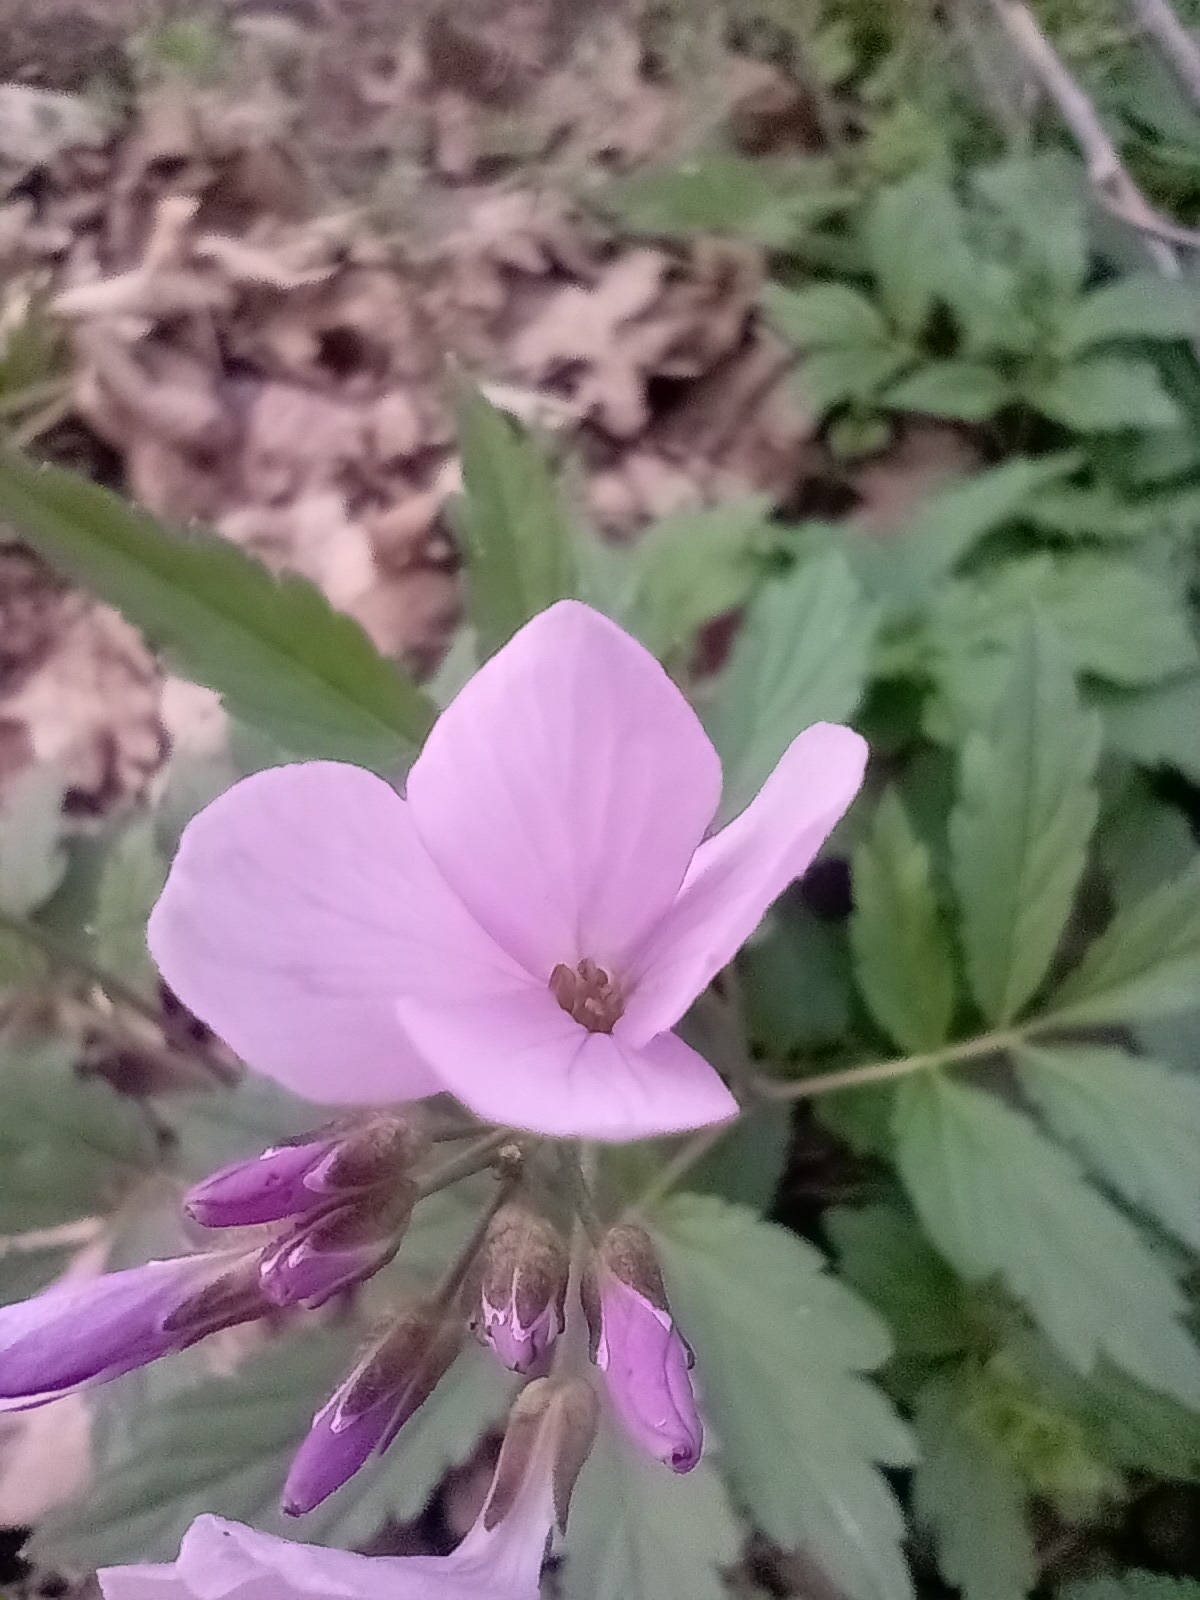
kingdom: Plantae
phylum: Tracheophyta
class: Magnoliopsida
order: Brassicales
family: Brassicaceae
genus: Cardamine
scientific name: Cardamine quinquefolia
